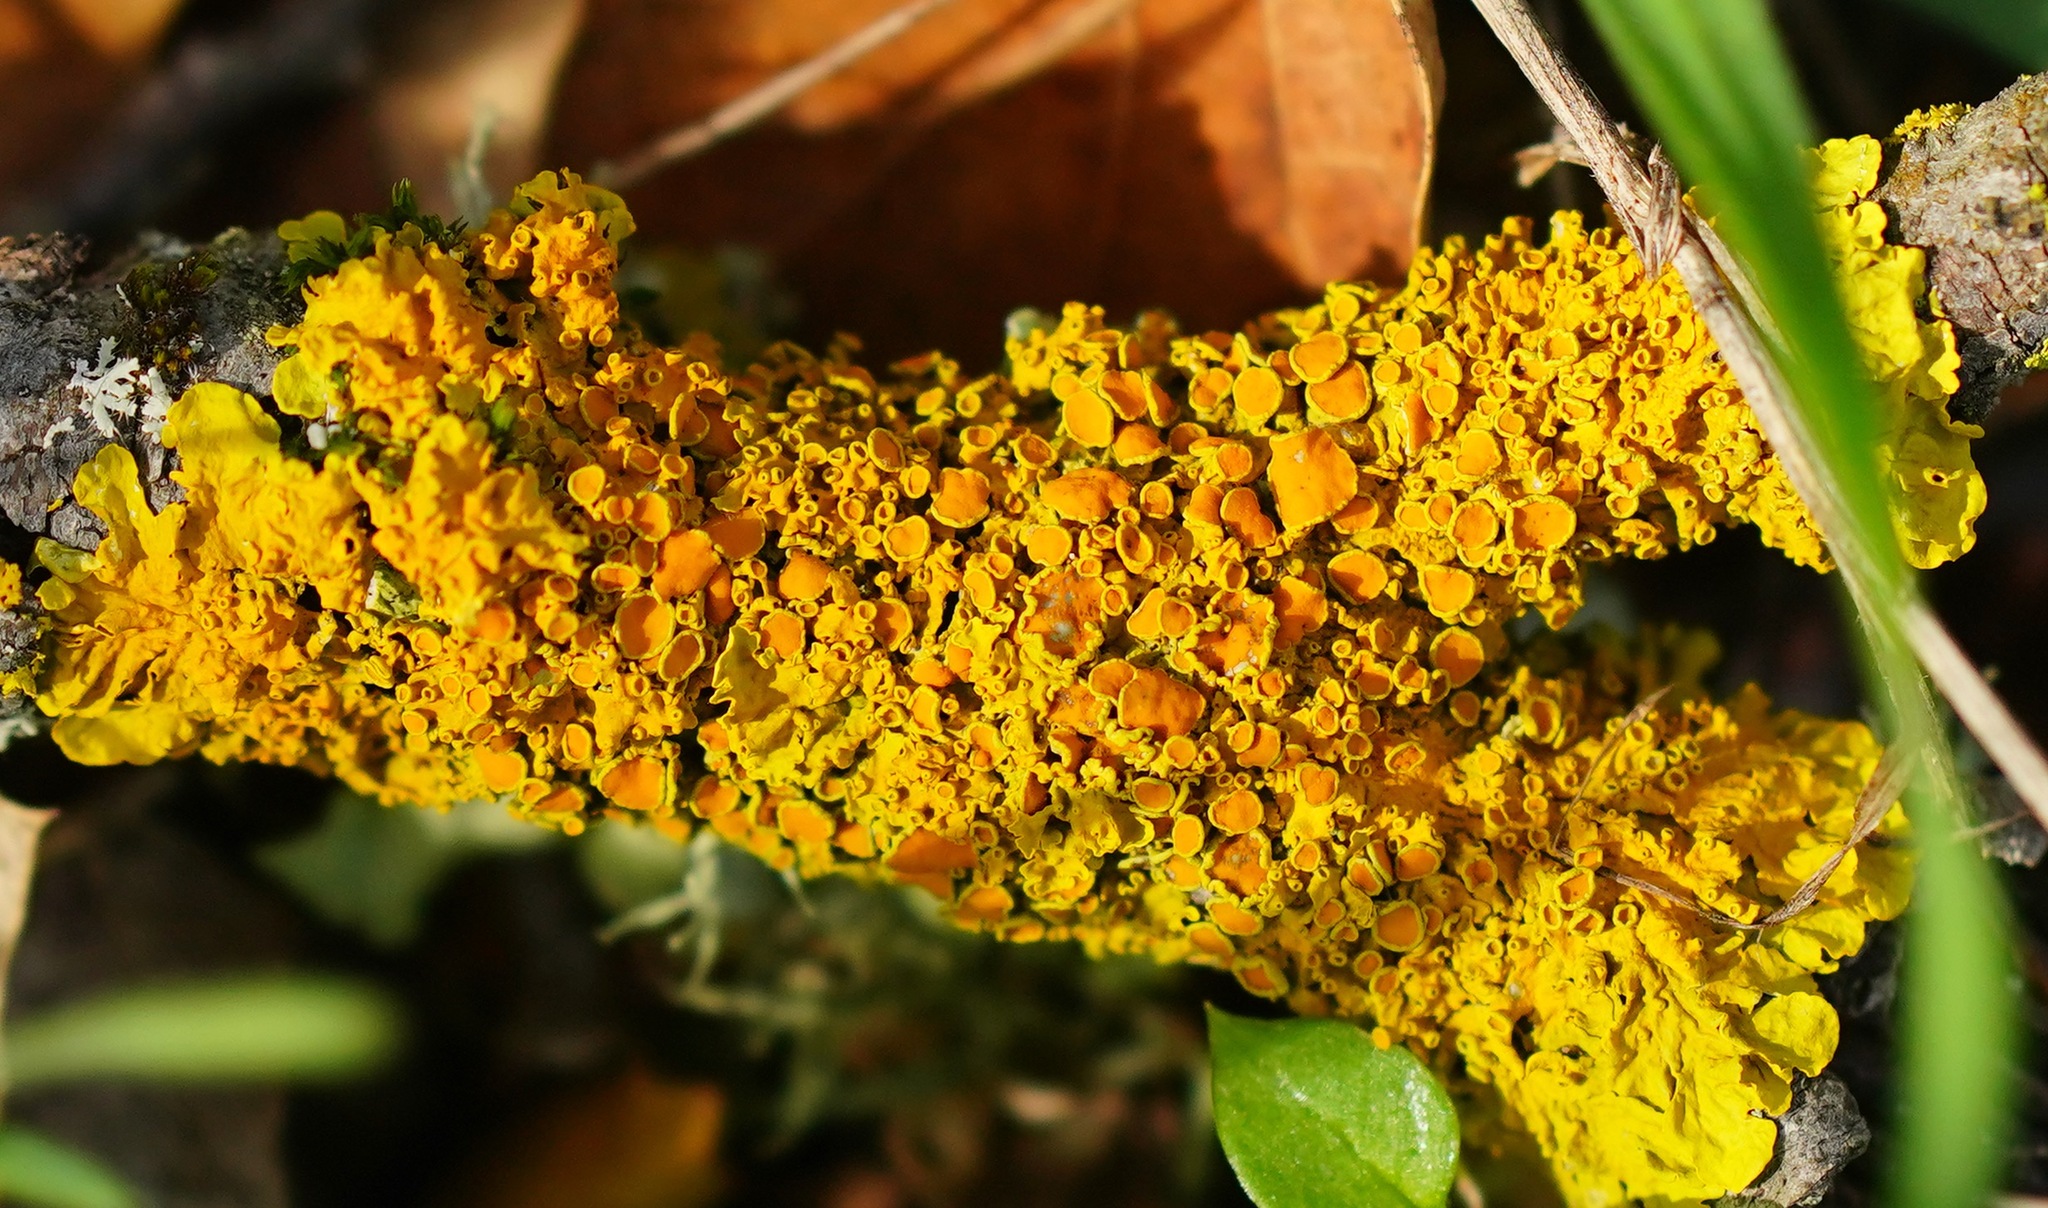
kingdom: Fungi
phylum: Ascomycota
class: Lecanoromycetes
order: Teloschistales
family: Teloschistaceae
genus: Xanthoria
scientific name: Xanthoria parietina
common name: Common orange lichen
